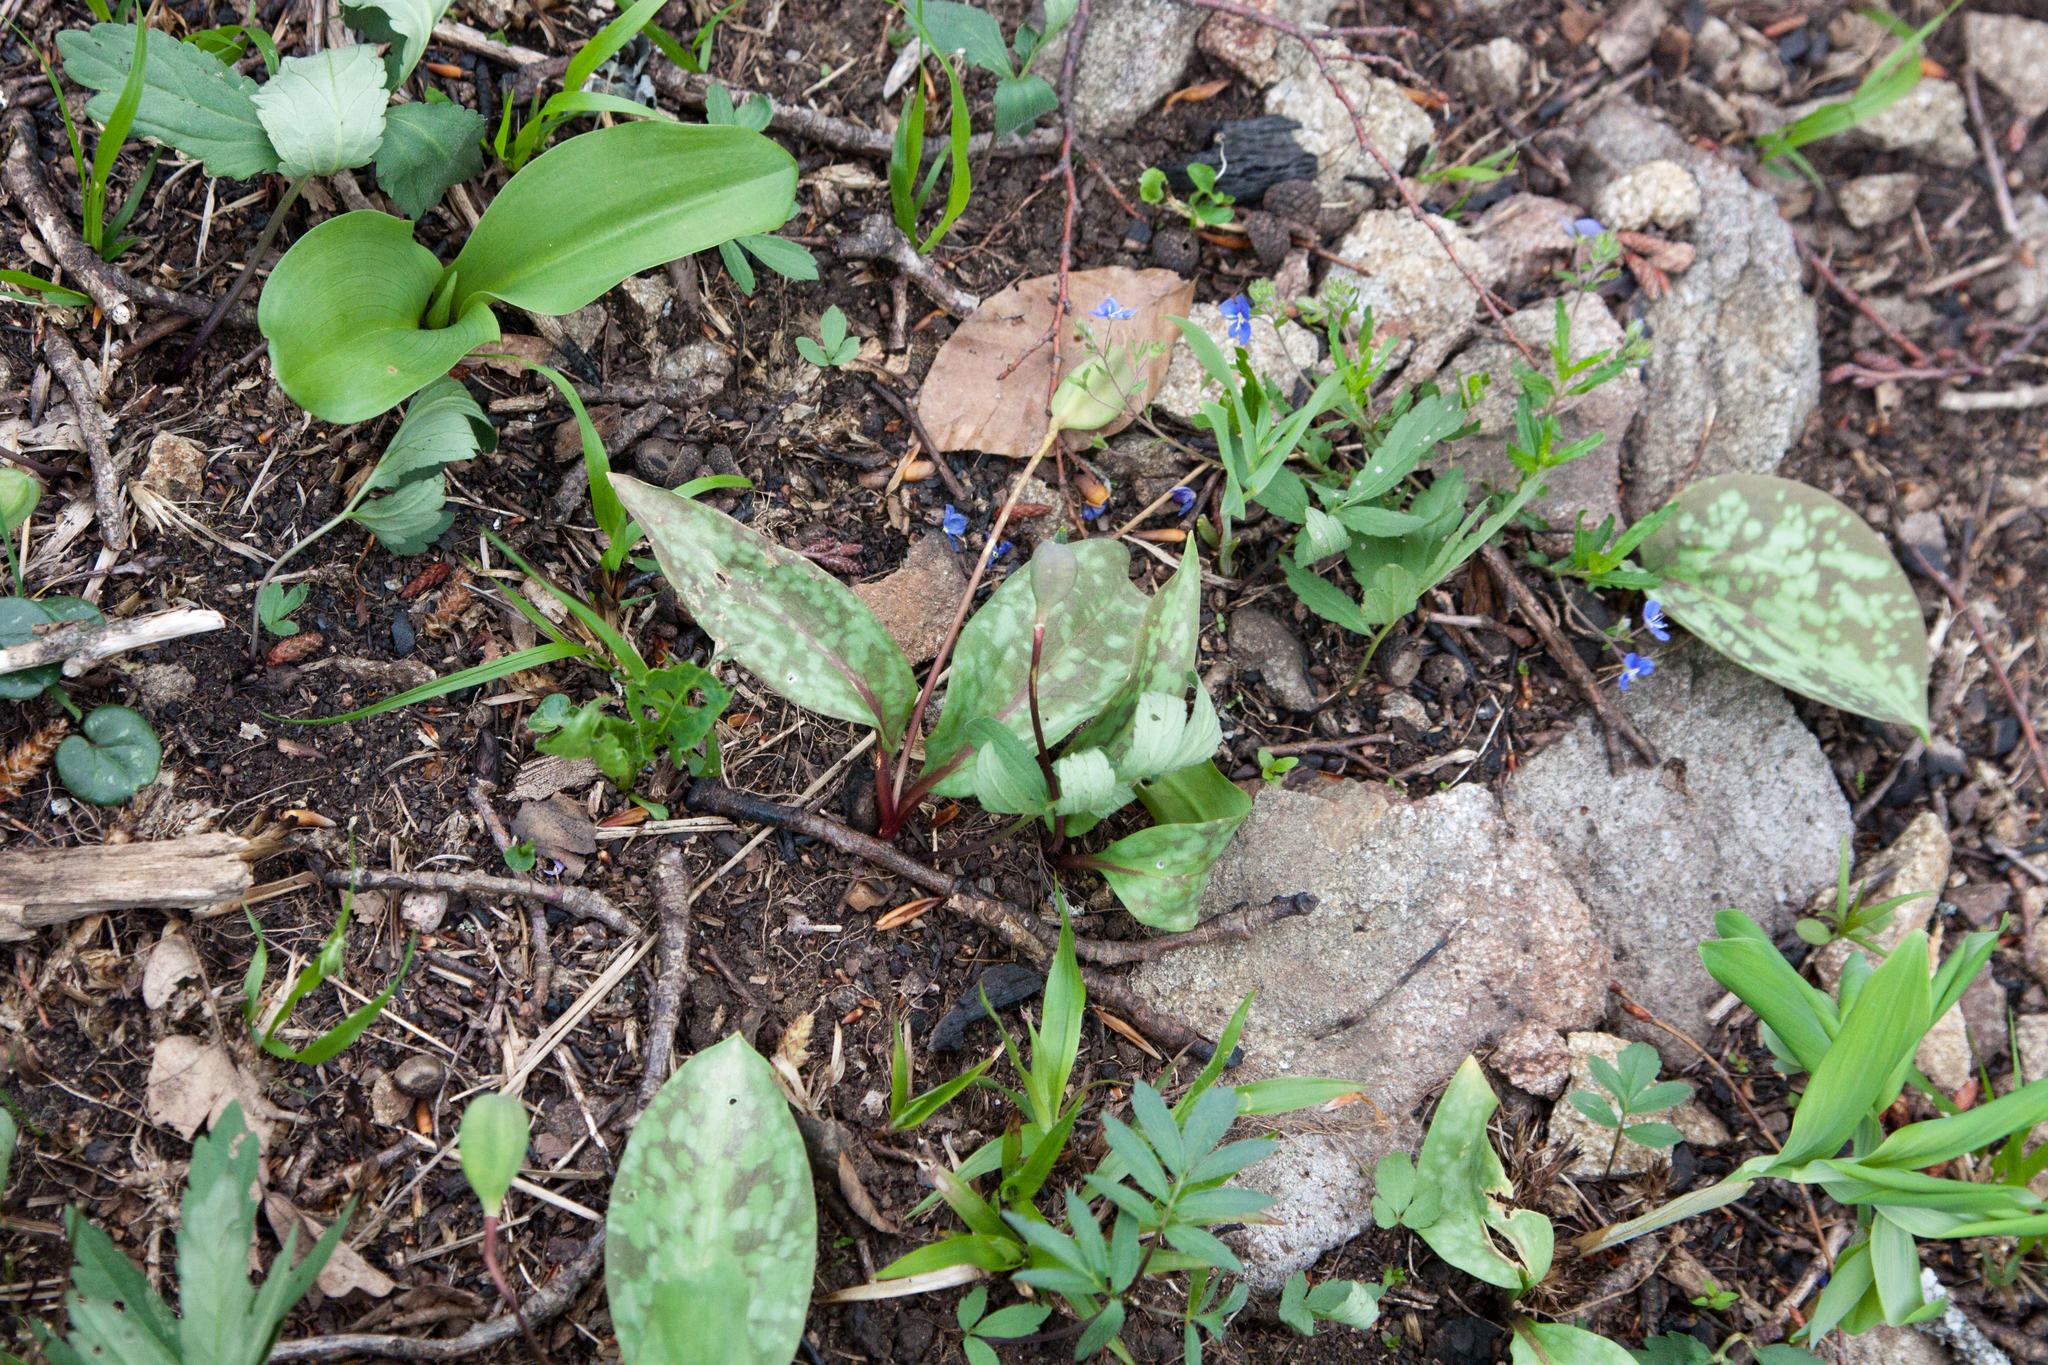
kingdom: Plantae
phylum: Tracheophyta
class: Liliopsida
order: Liliales
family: Liliaceae
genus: Erythronium
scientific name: Erythronium caucasicum
